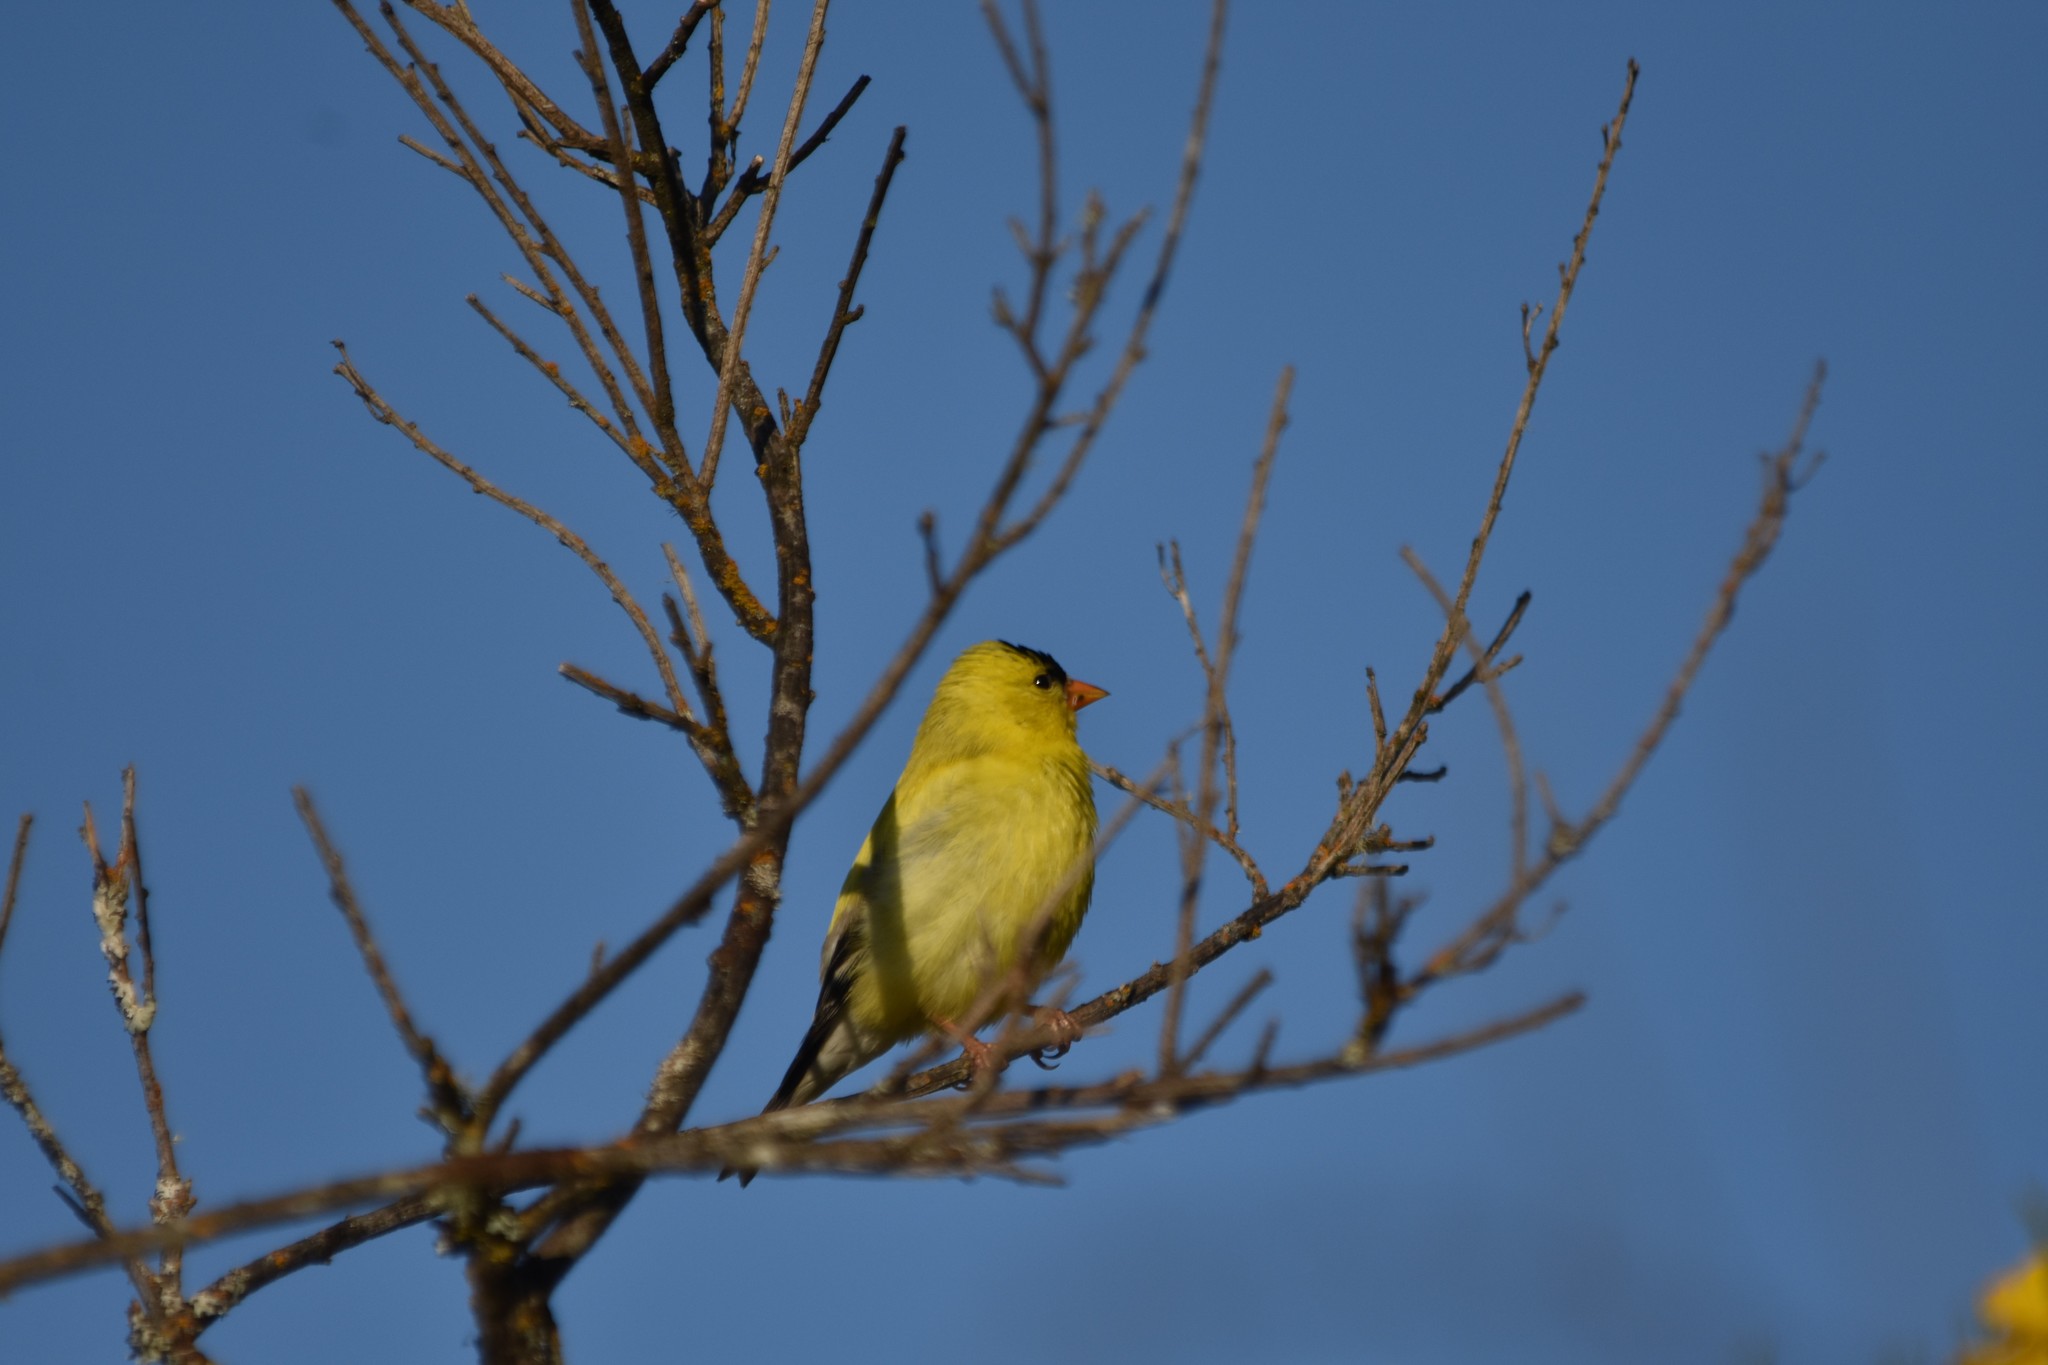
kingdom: Animalia
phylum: Chordata
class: Aves
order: Passeriformes
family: Fringillidae
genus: Spinus
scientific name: Spinus tristis
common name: American goldfinch
